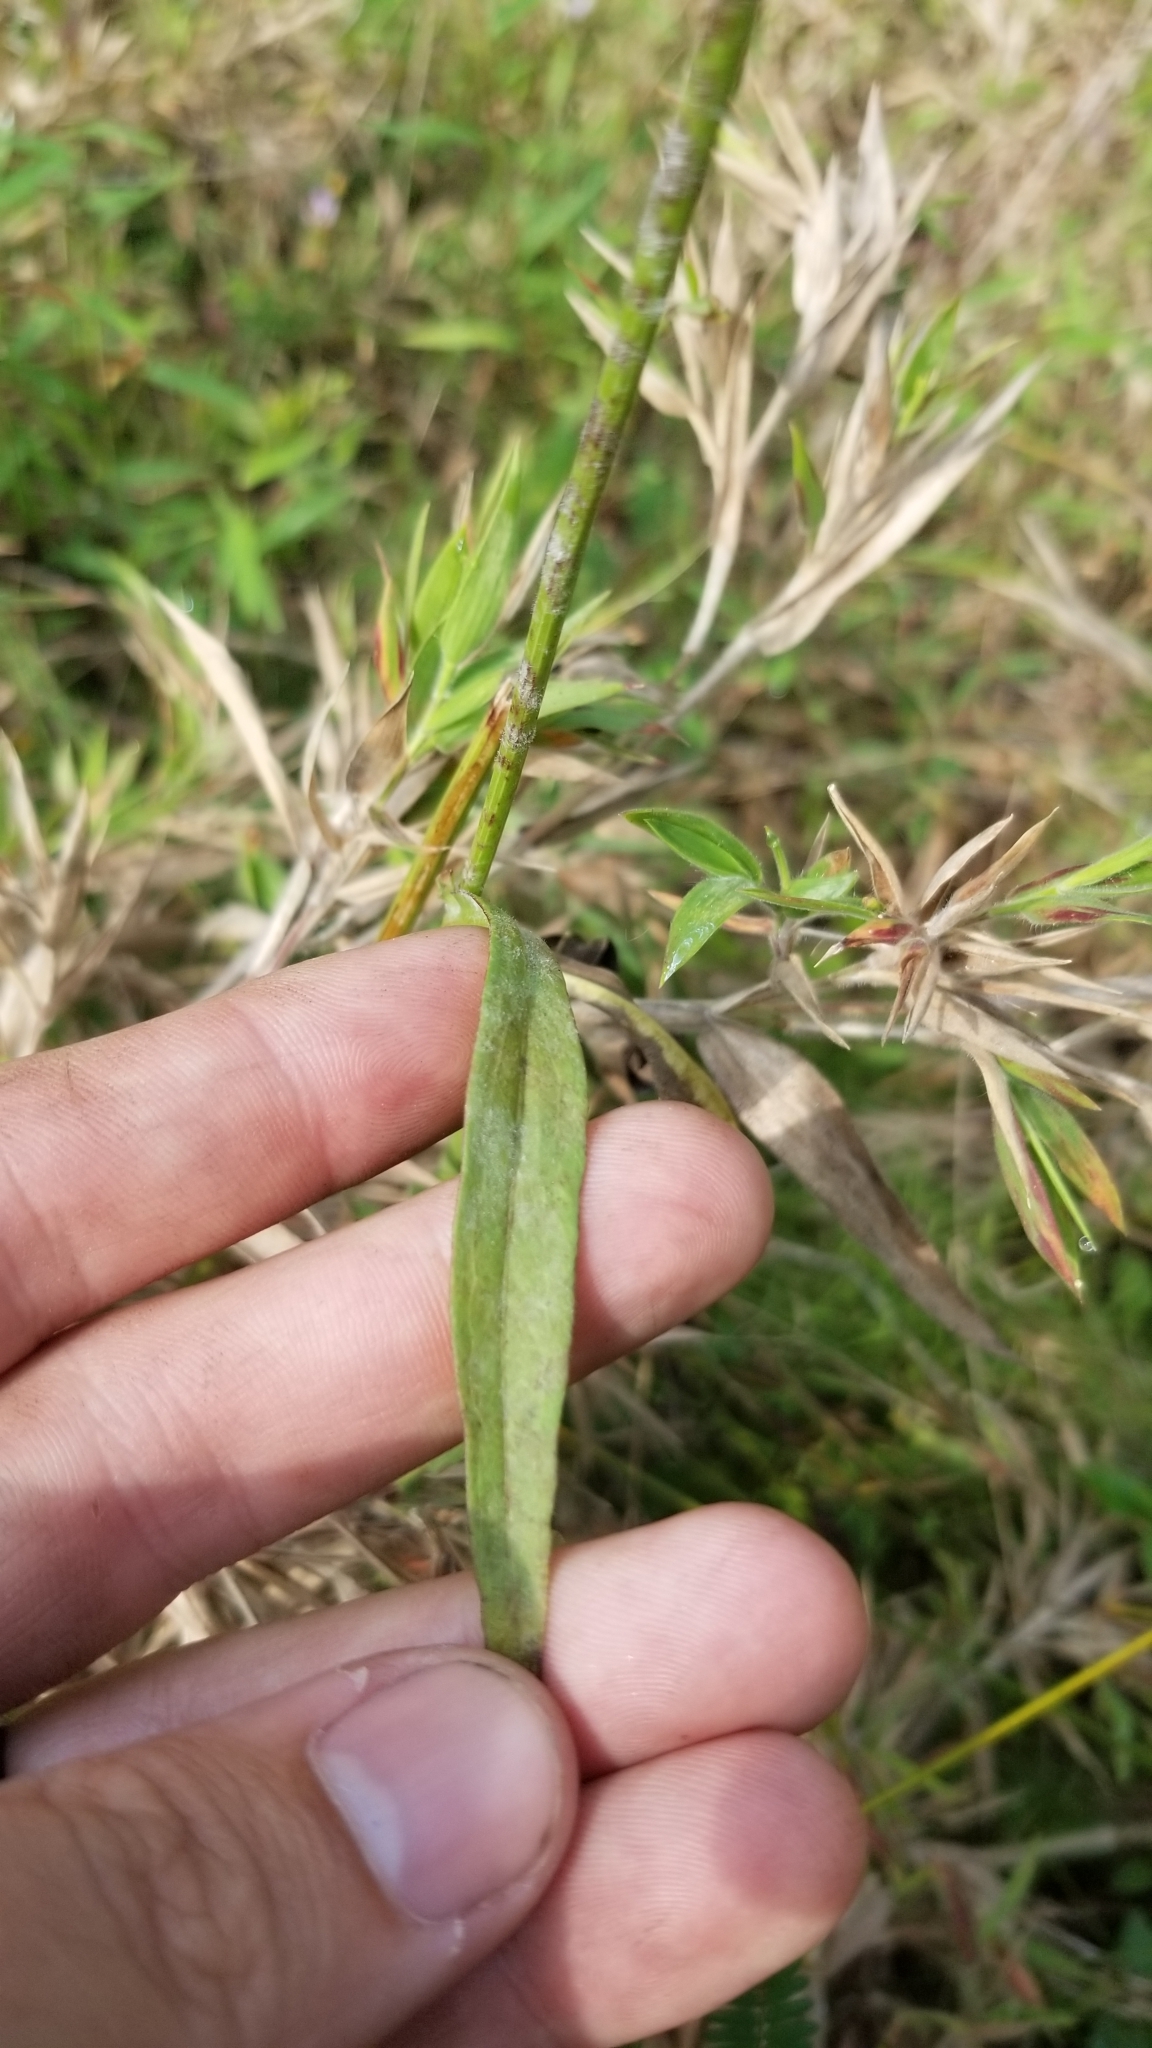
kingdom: Plantae
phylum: Tracheophyta
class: Magnoliopsida
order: Asterales
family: Asteraceae
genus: Pyrrhopappus
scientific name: Pyrrhopappus carolinianus
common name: Carolina desert-chicory
